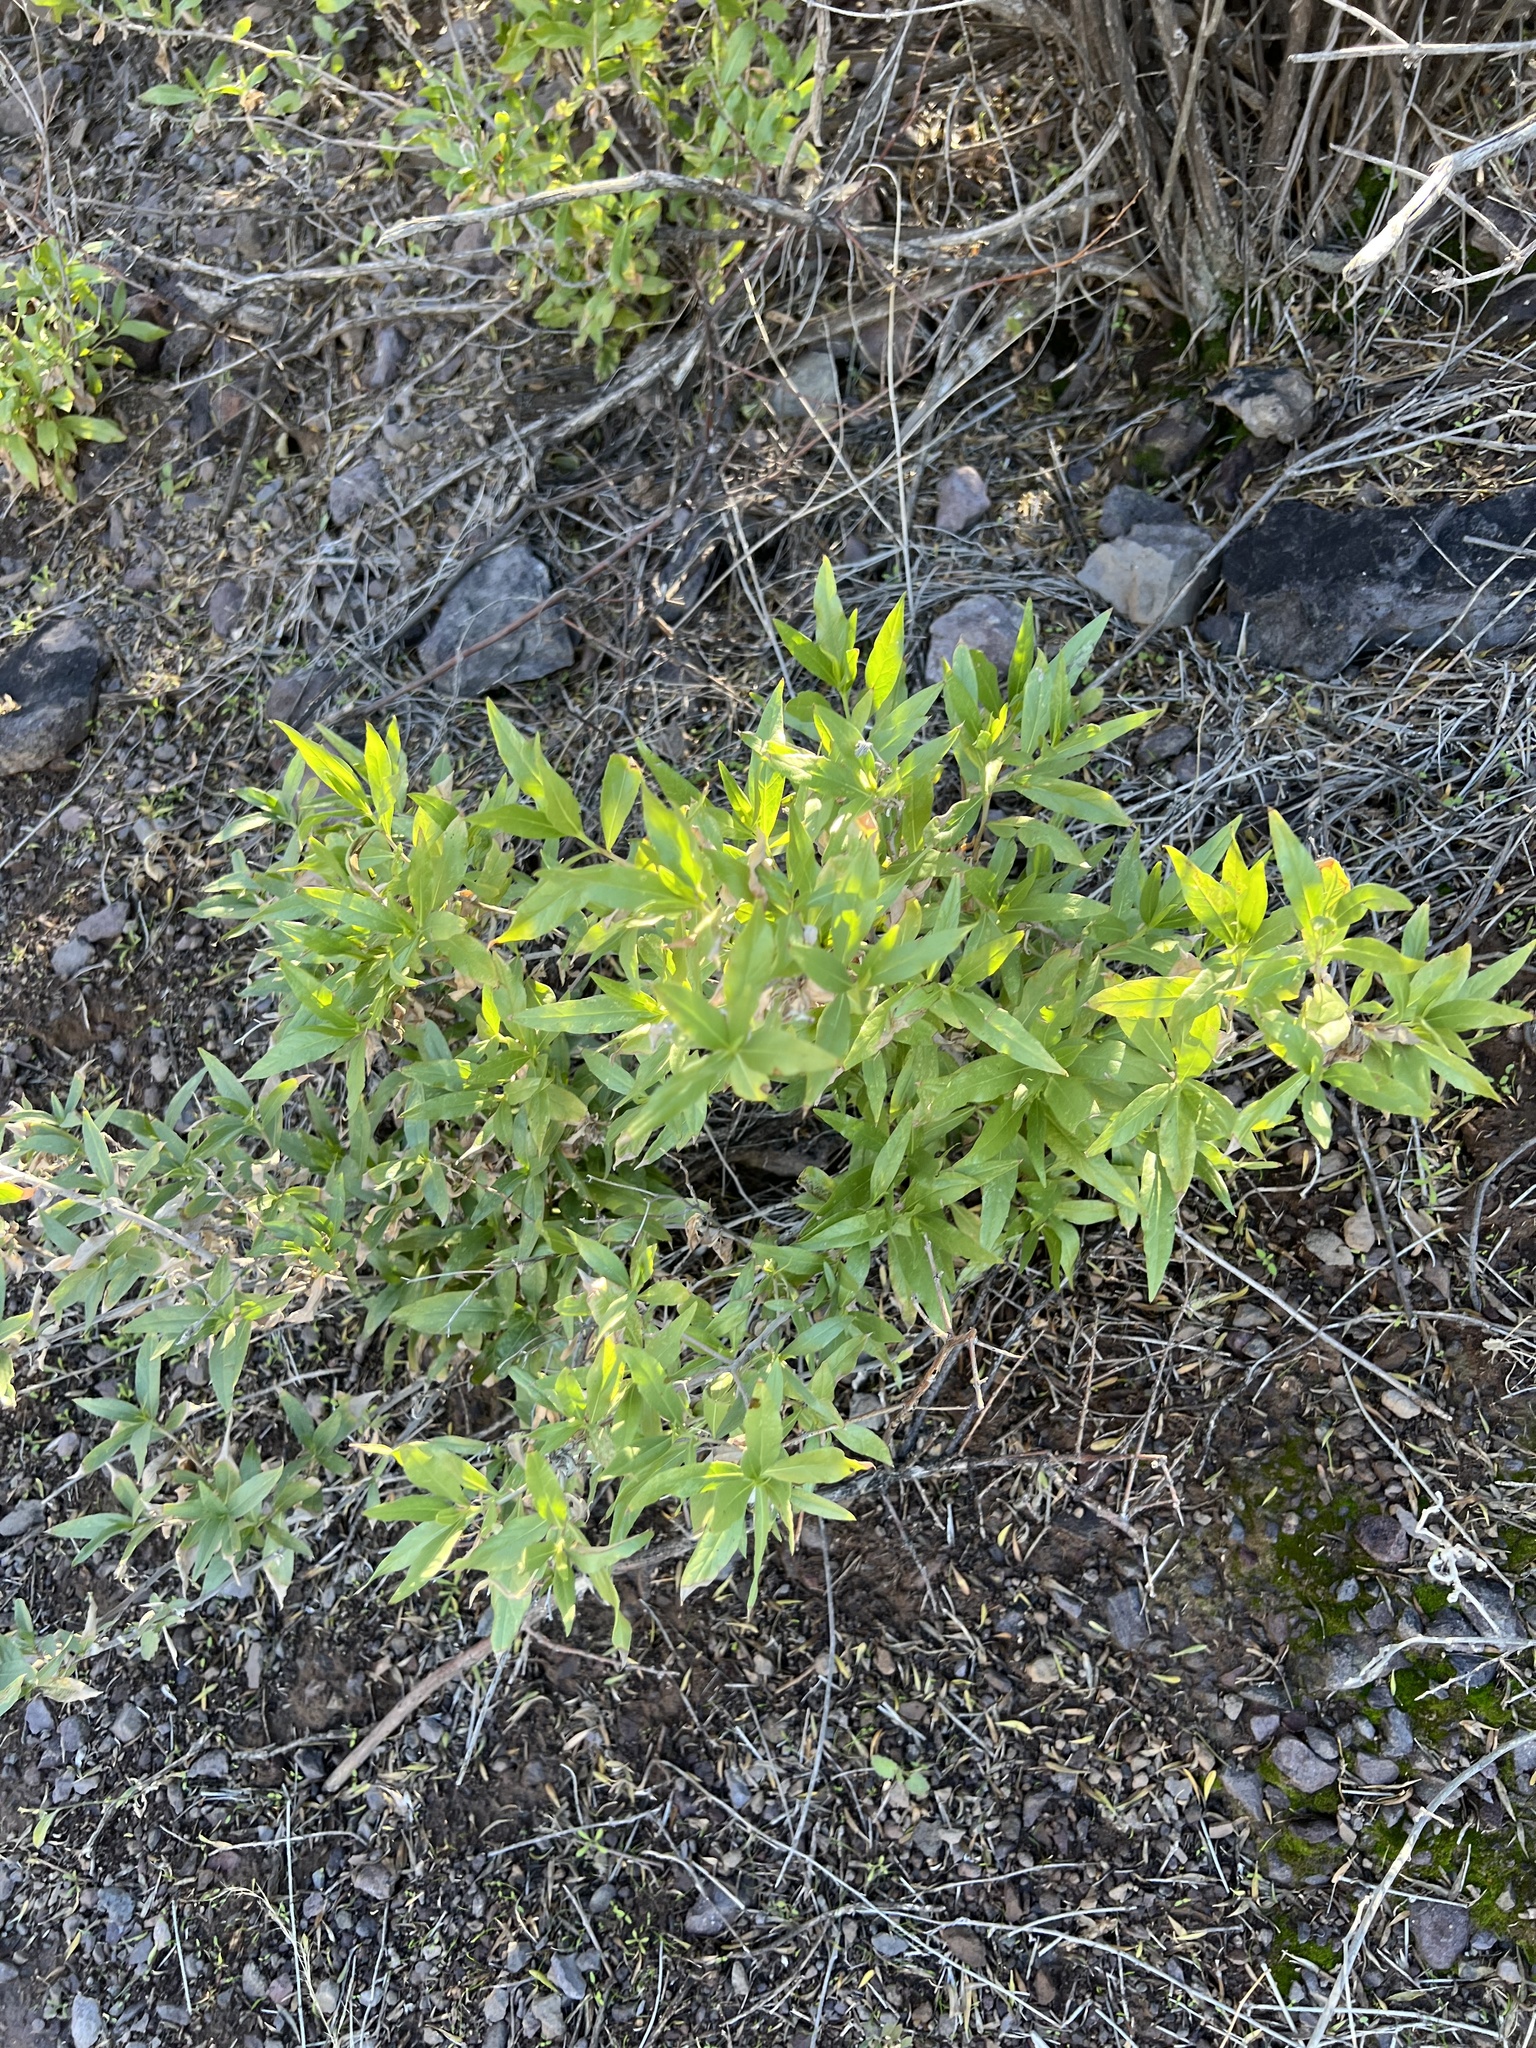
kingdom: Plantae
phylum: Tracheophyta
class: Magnoliopsida
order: Asterales
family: Asteraceae
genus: Trixis
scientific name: Trixis californica
